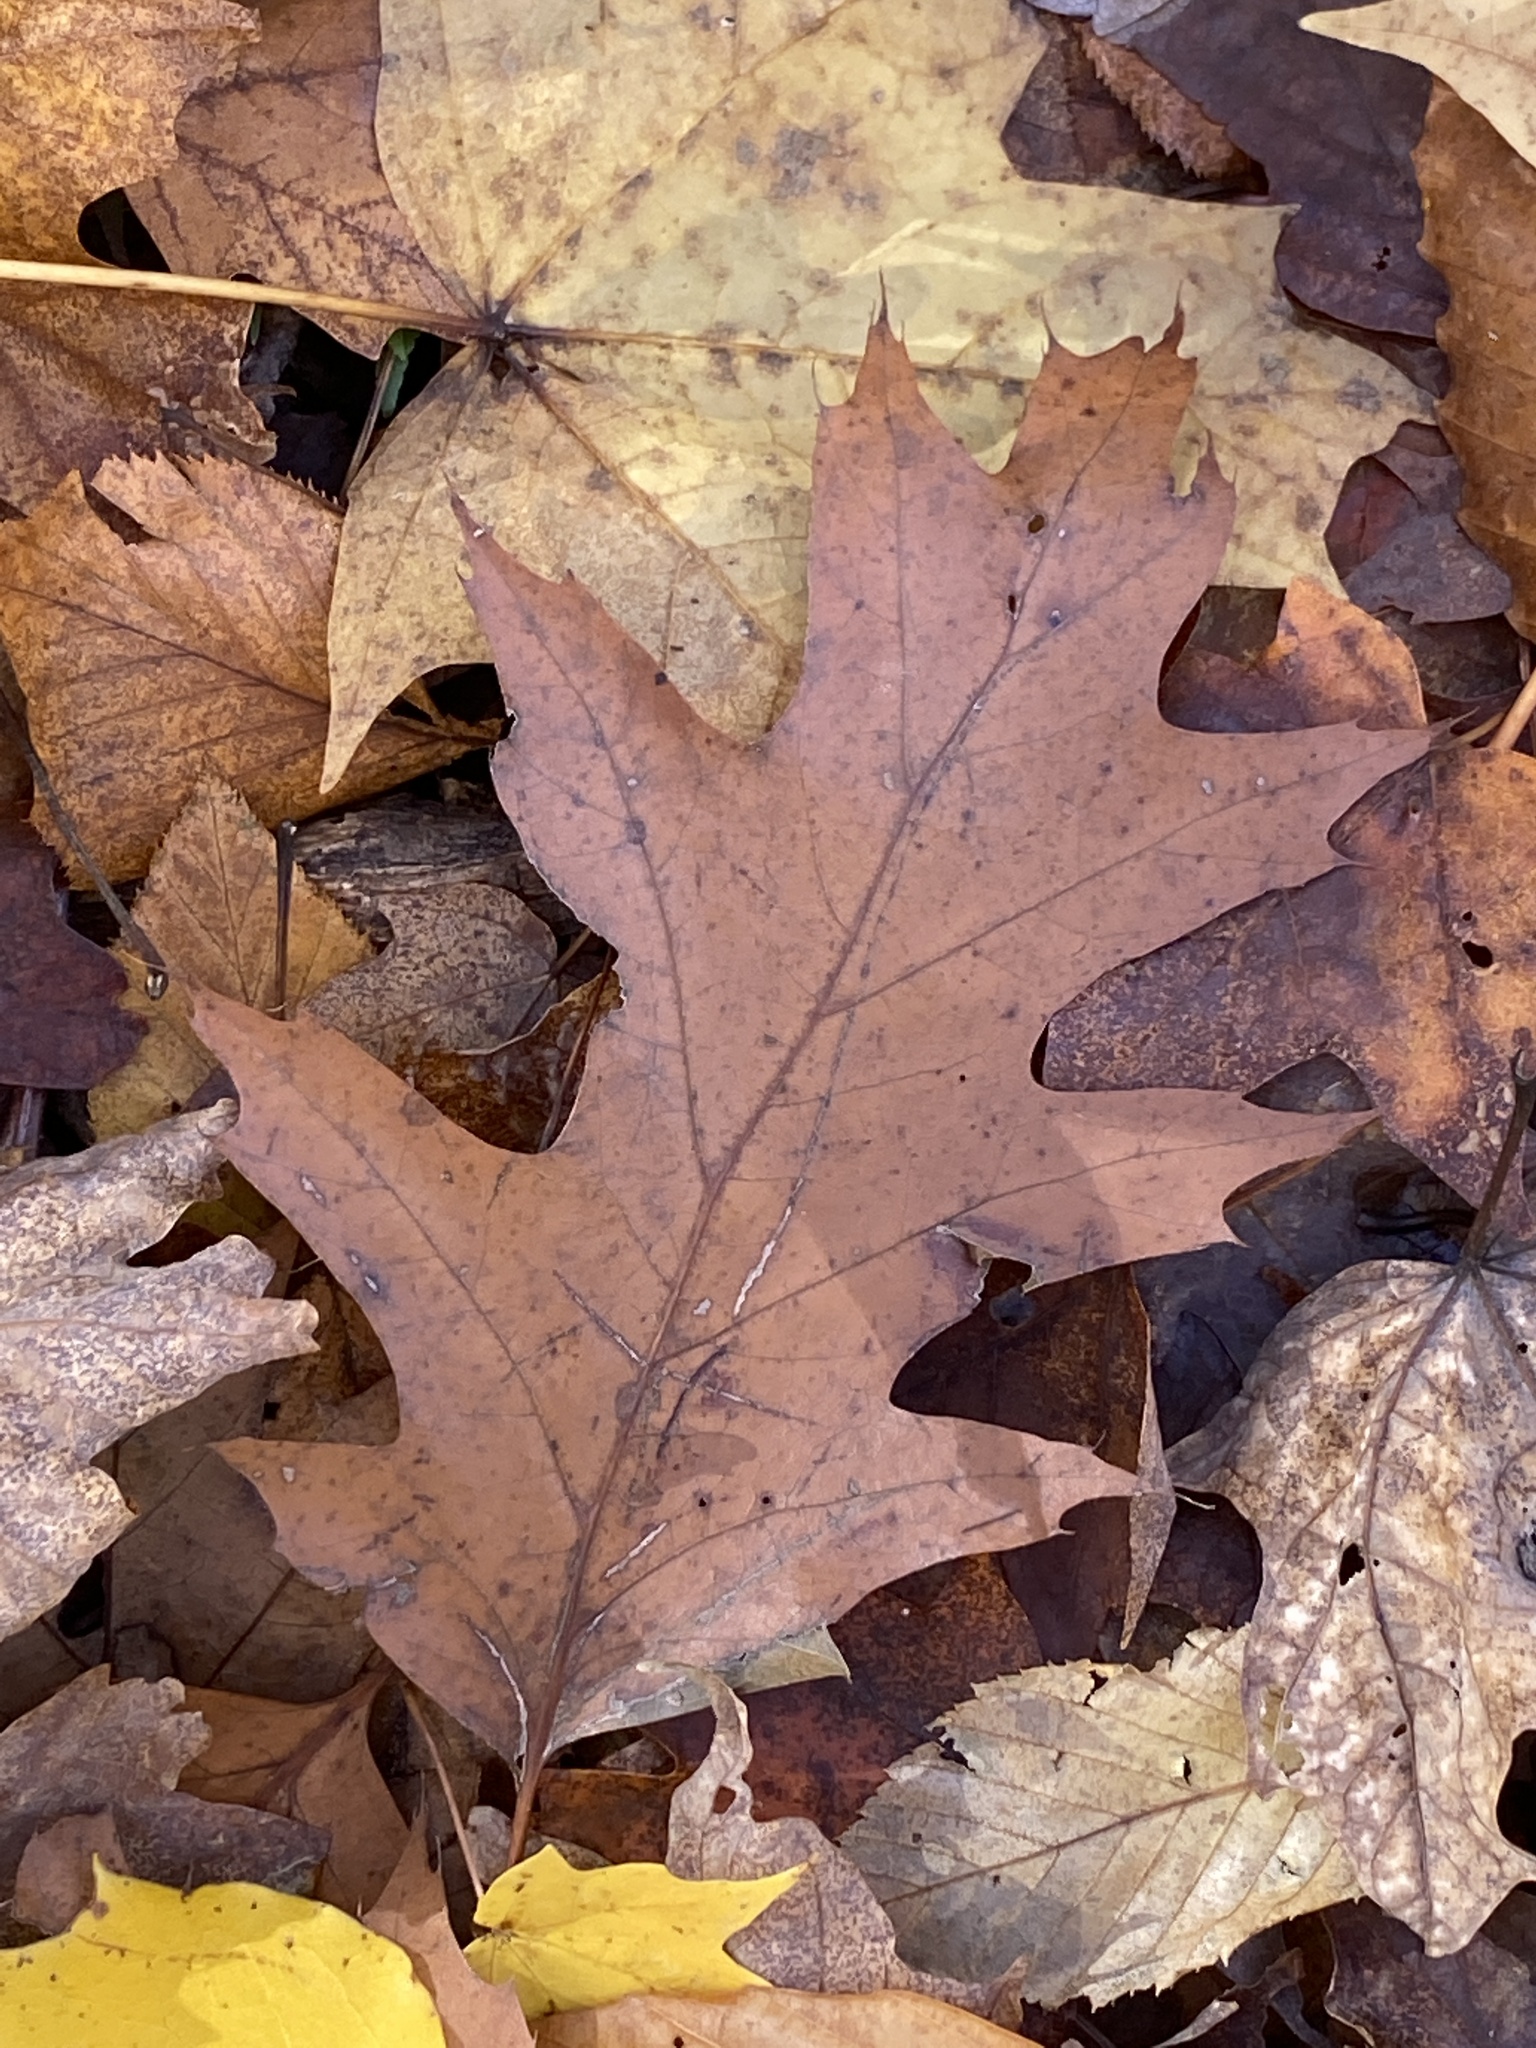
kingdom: Plantae
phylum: Tracheophyta
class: Magnoliopsida
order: Fagales
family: Fagaceae
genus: Quercus
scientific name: Quercus rubra
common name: Red oak
